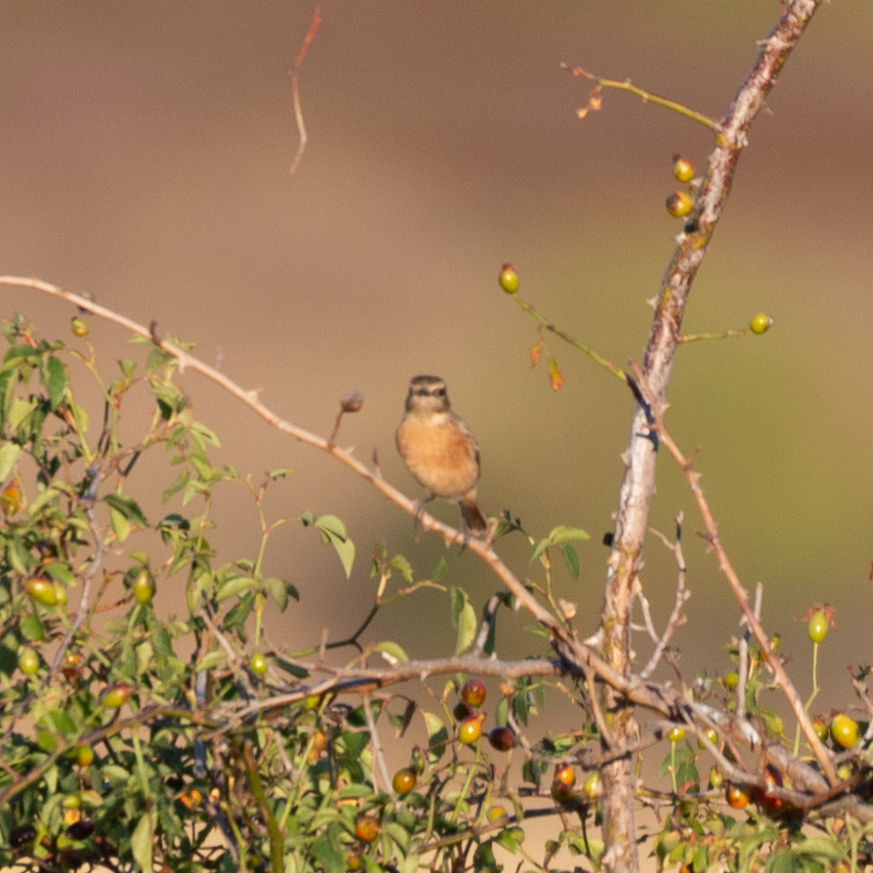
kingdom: Animalia
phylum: Chordata
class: Aves
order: Passeriformes
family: Muscicapidae
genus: Saxicola
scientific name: Saxicola rubicola
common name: European stonechat
